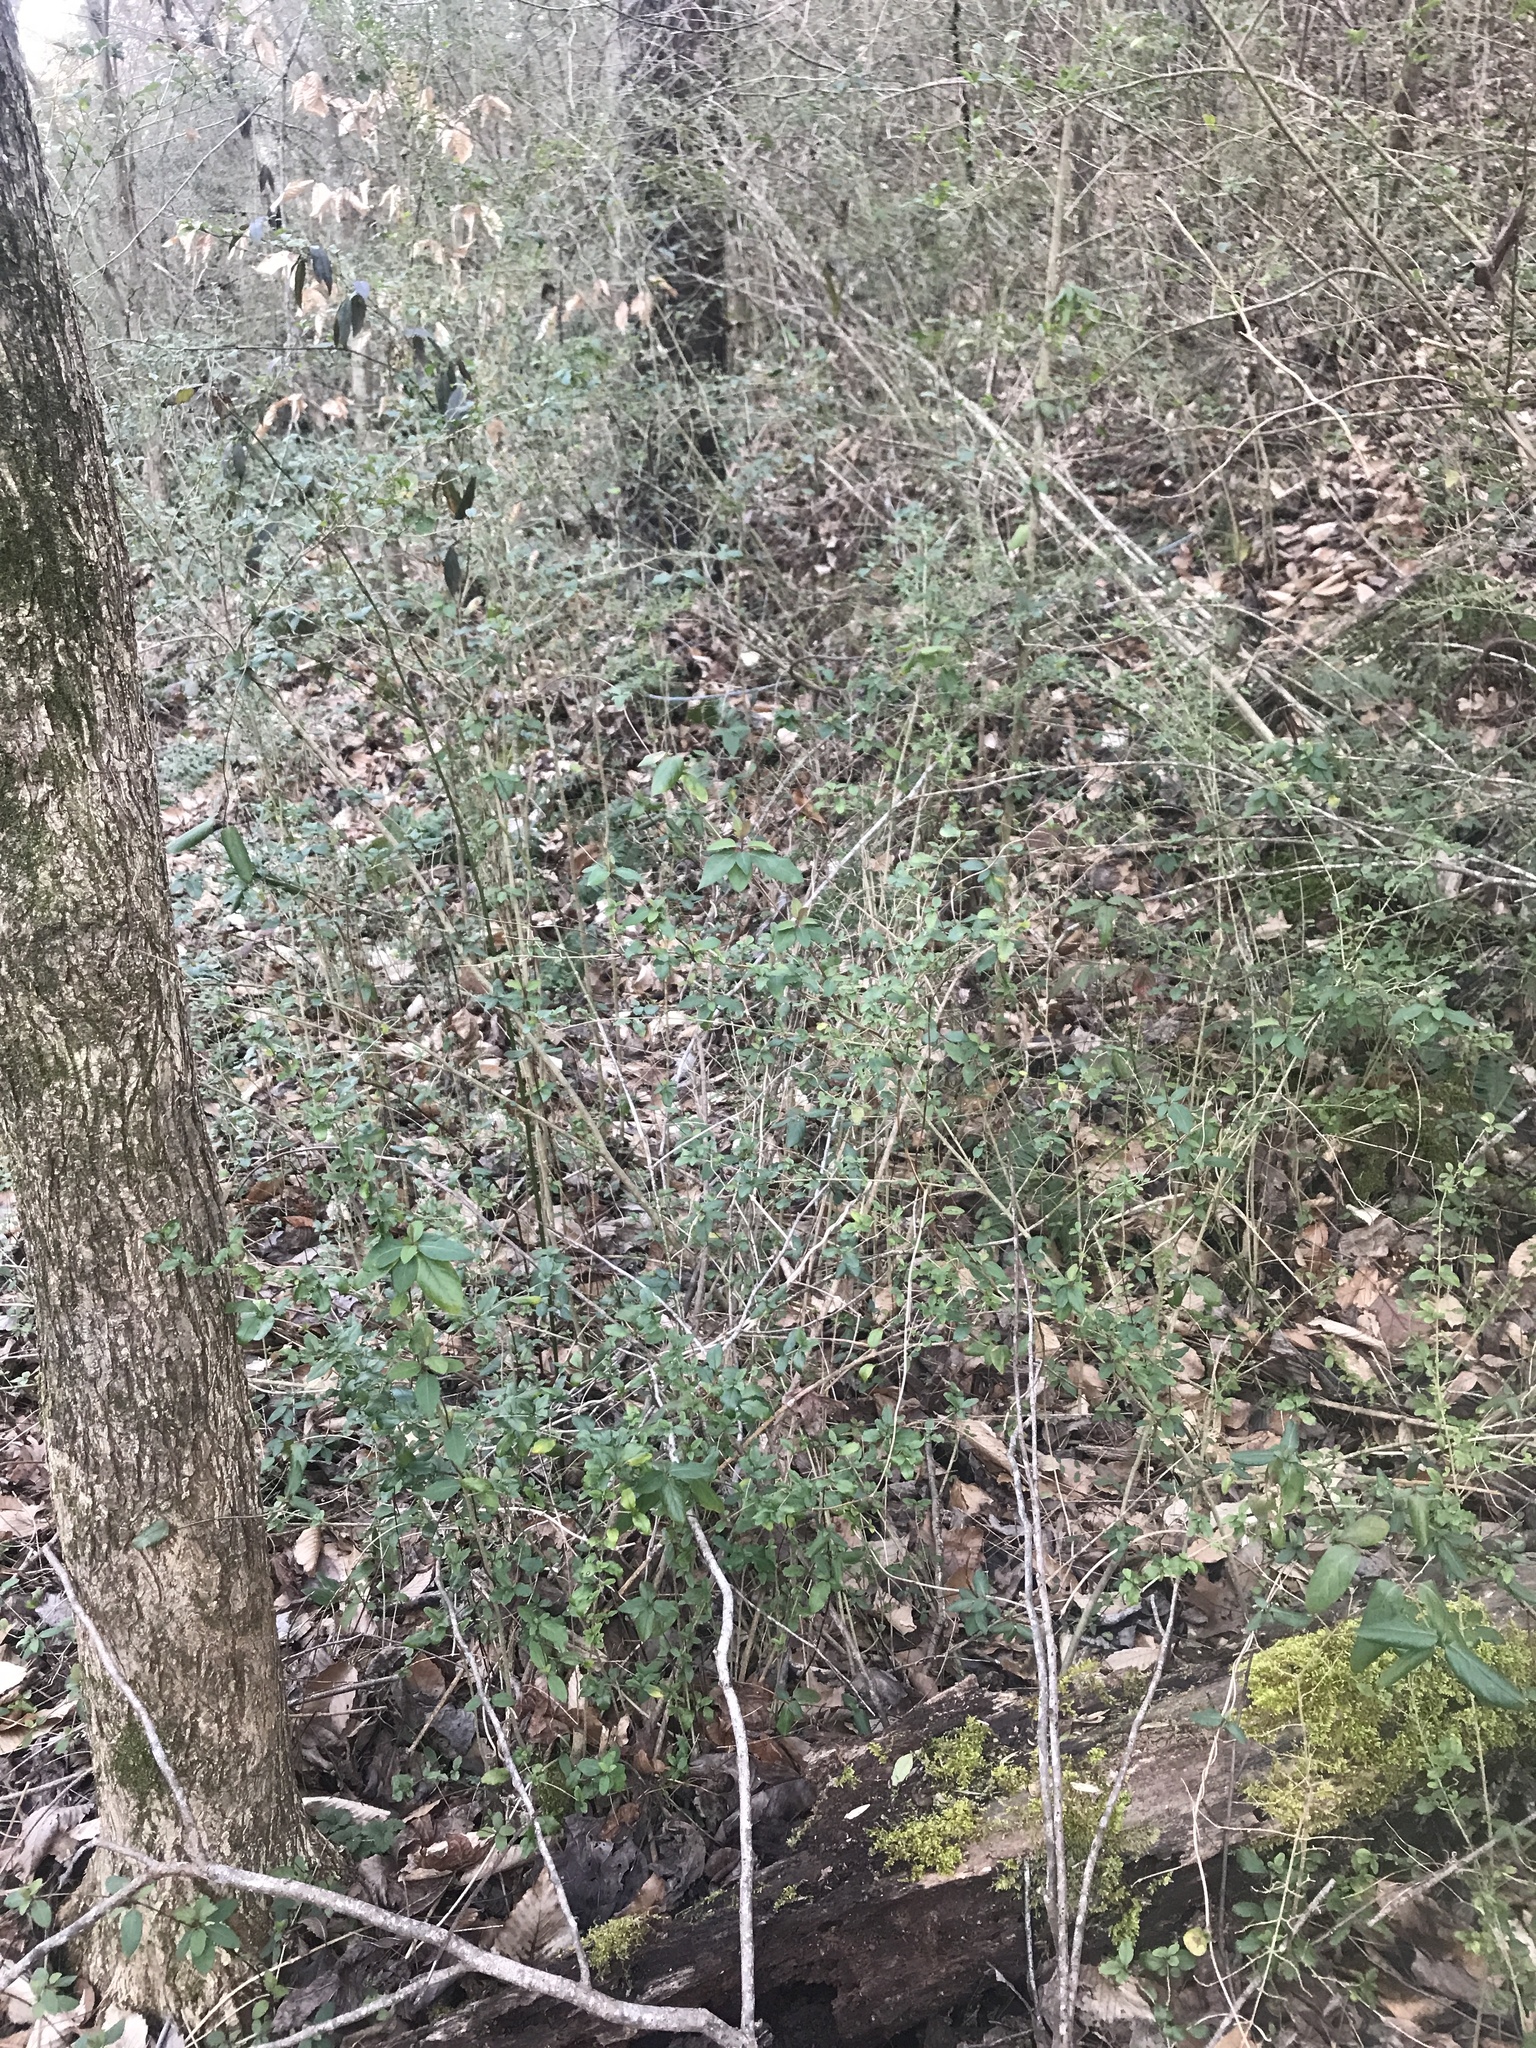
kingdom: Plantae
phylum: Tracheophyta
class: Magnoliopsida
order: Lamiales
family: Oleaceae
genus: Ligustrum
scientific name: Ligustrum sinense
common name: Chinese privet
